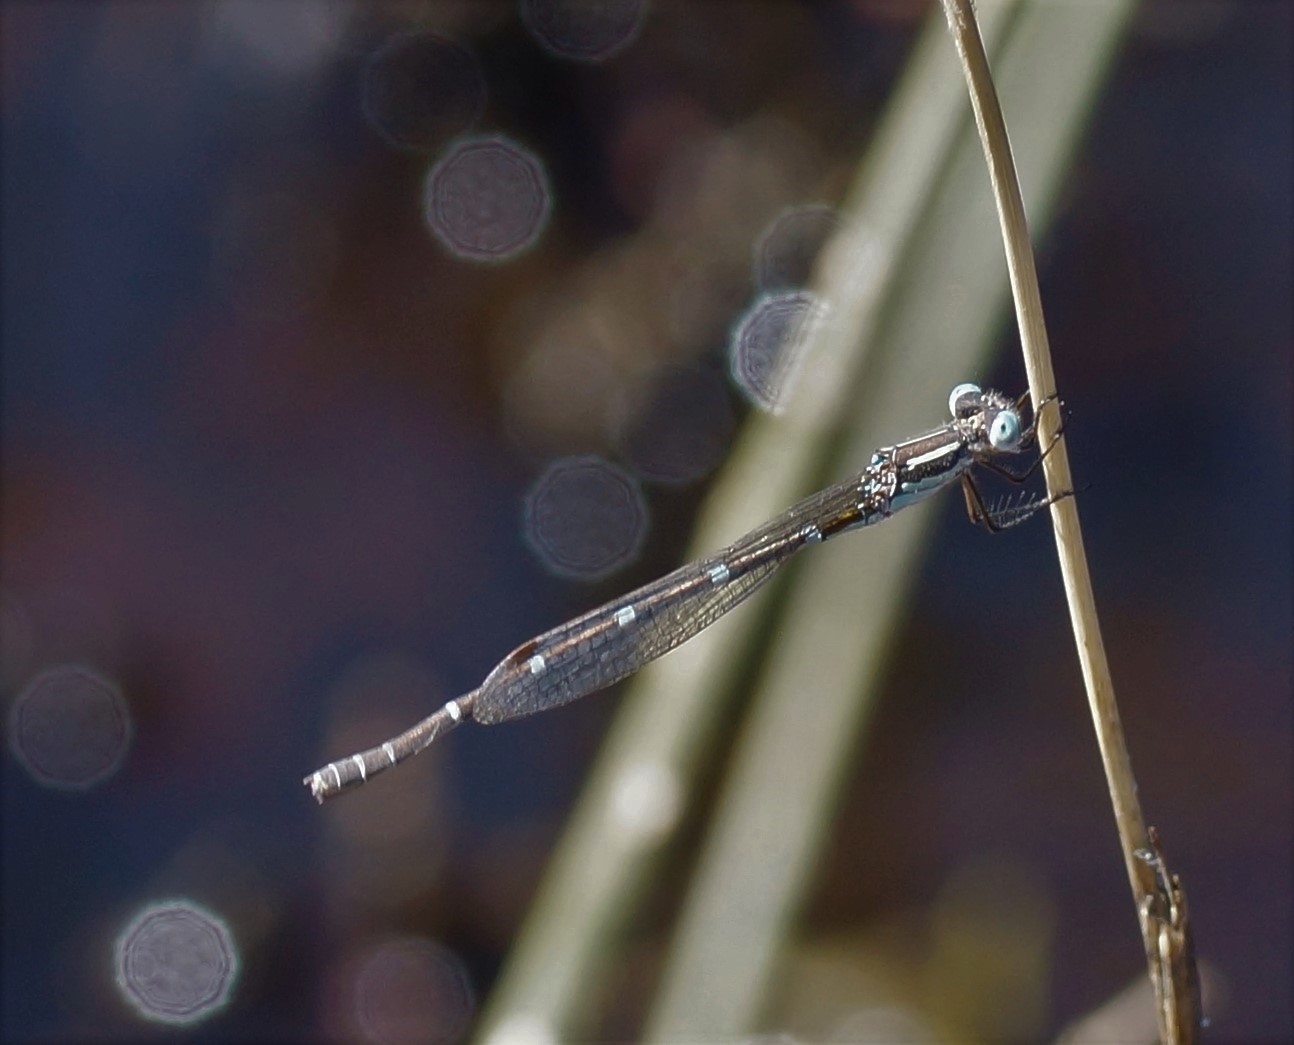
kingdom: Animalia
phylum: Arthropoda
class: Insecta
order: Odonata
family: Lestidae
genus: Austrolestes
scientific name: Austrolestes leda
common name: Wandering ringtail
